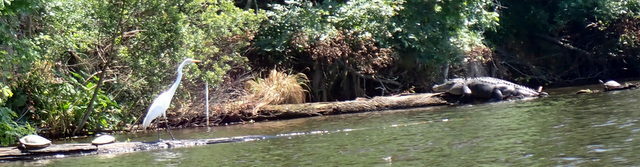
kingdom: Animalia
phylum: Chordata
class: Crocodylia
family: Alligatoridae
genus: Alligator
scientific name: Alligator mississippiensis
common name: American alligator
